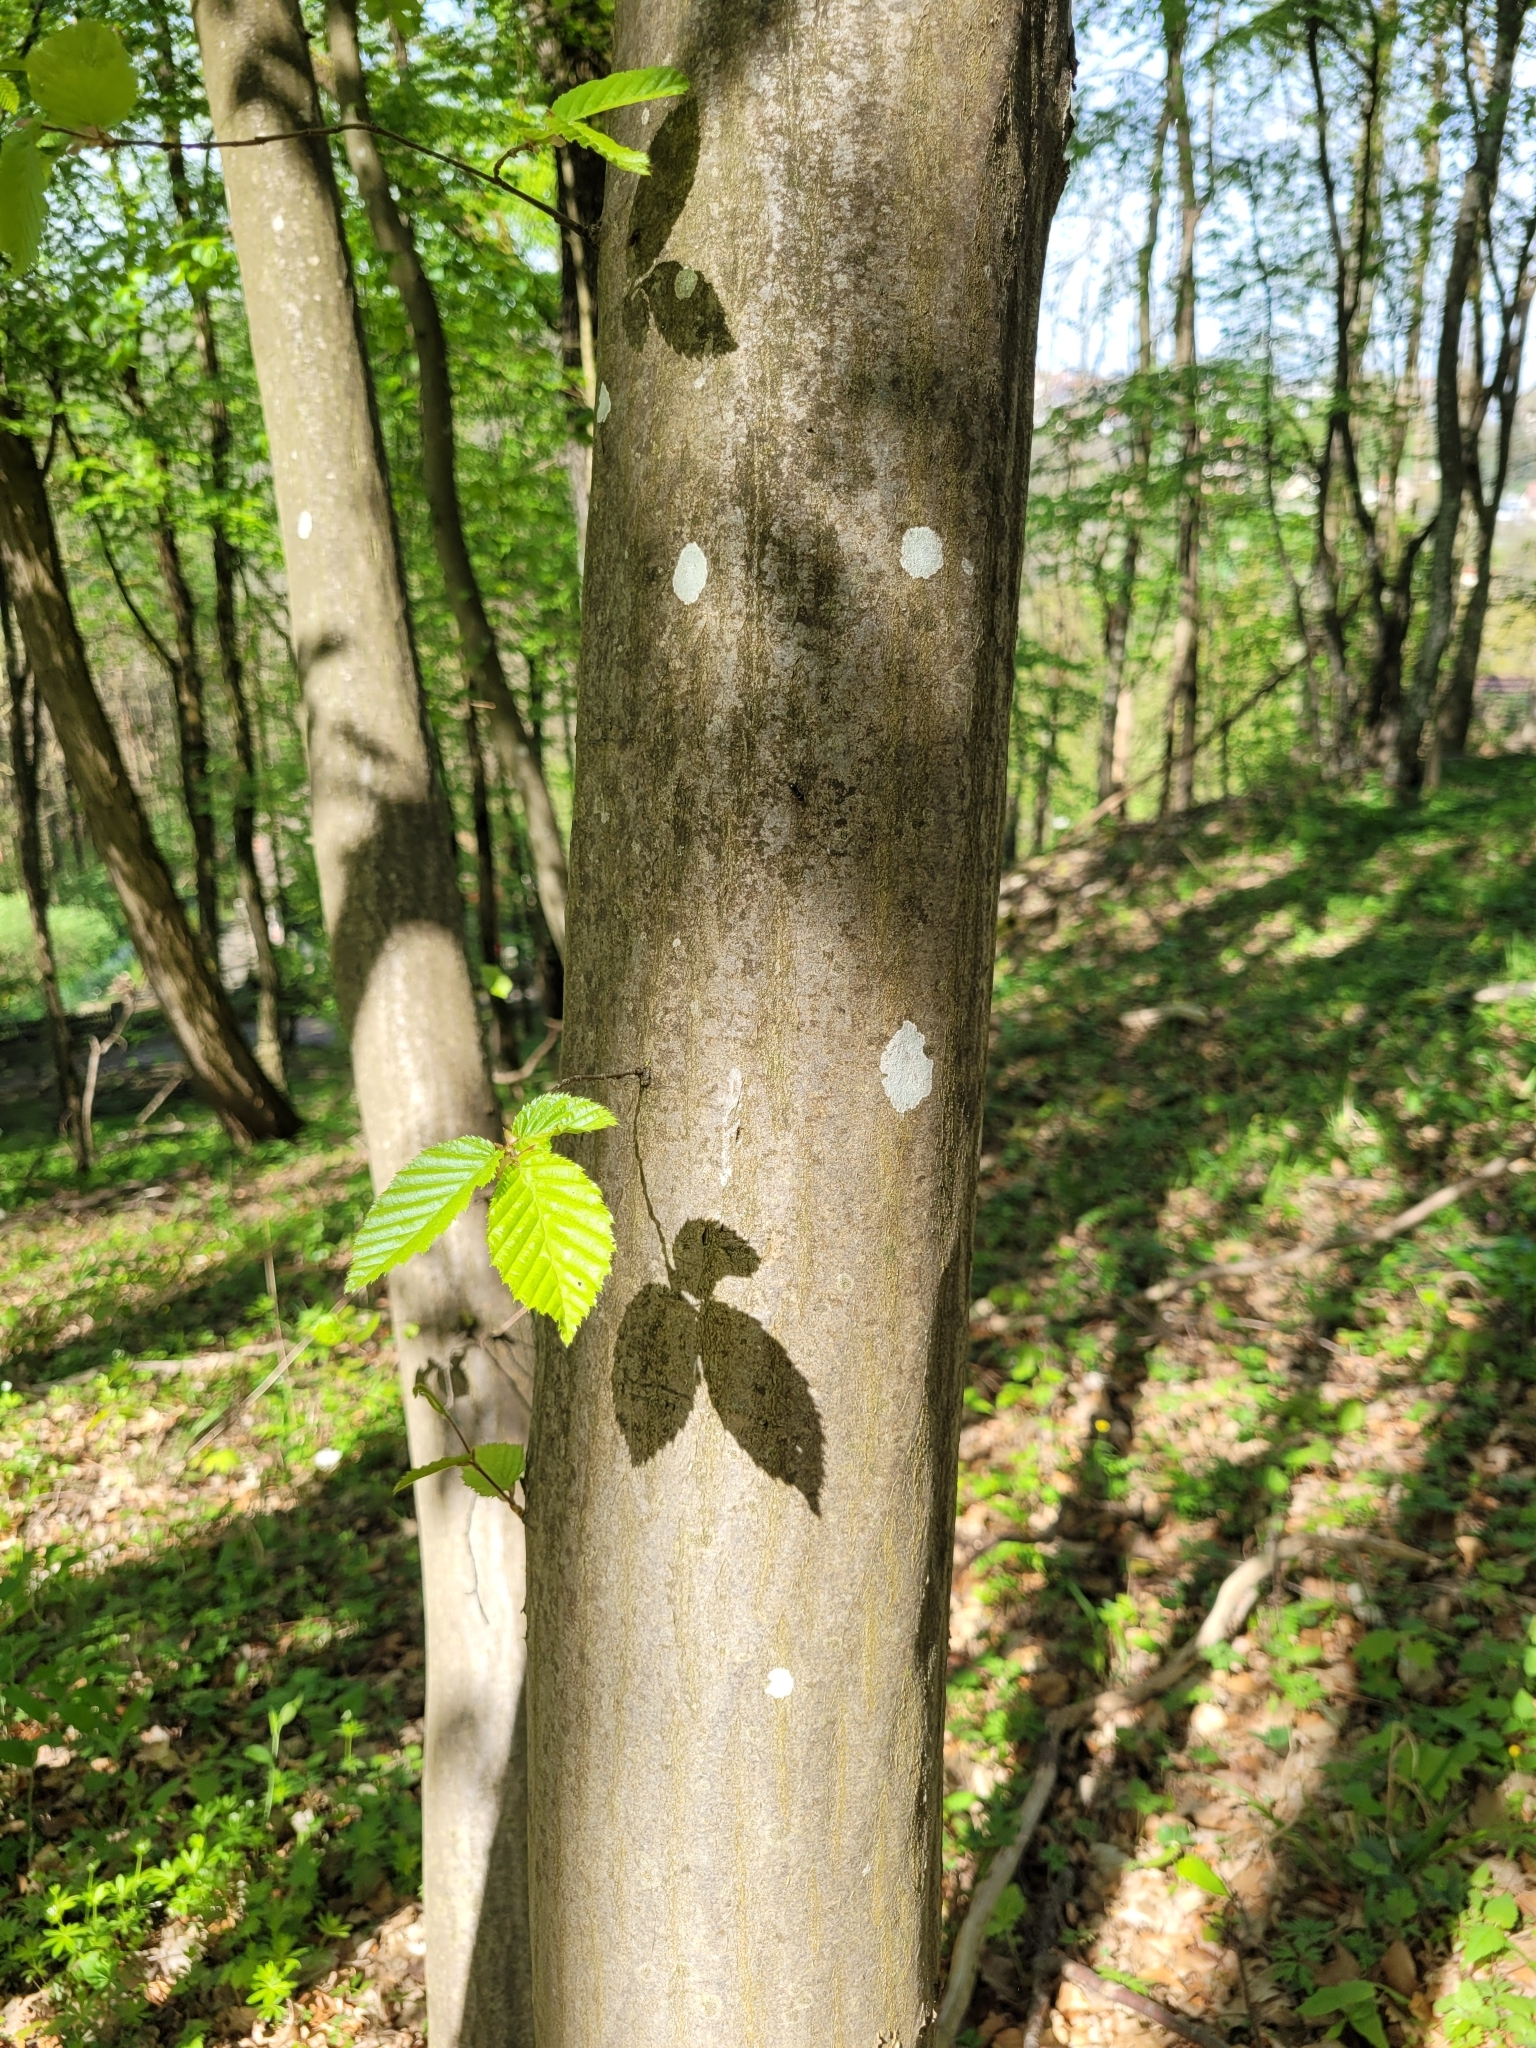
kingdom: Plantae
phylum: Tracheophyta
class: Magnoliopsida
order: Fagales
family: Betulaceae
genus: Carpinus
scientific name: Carpinus betulus
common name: Hornbeam
